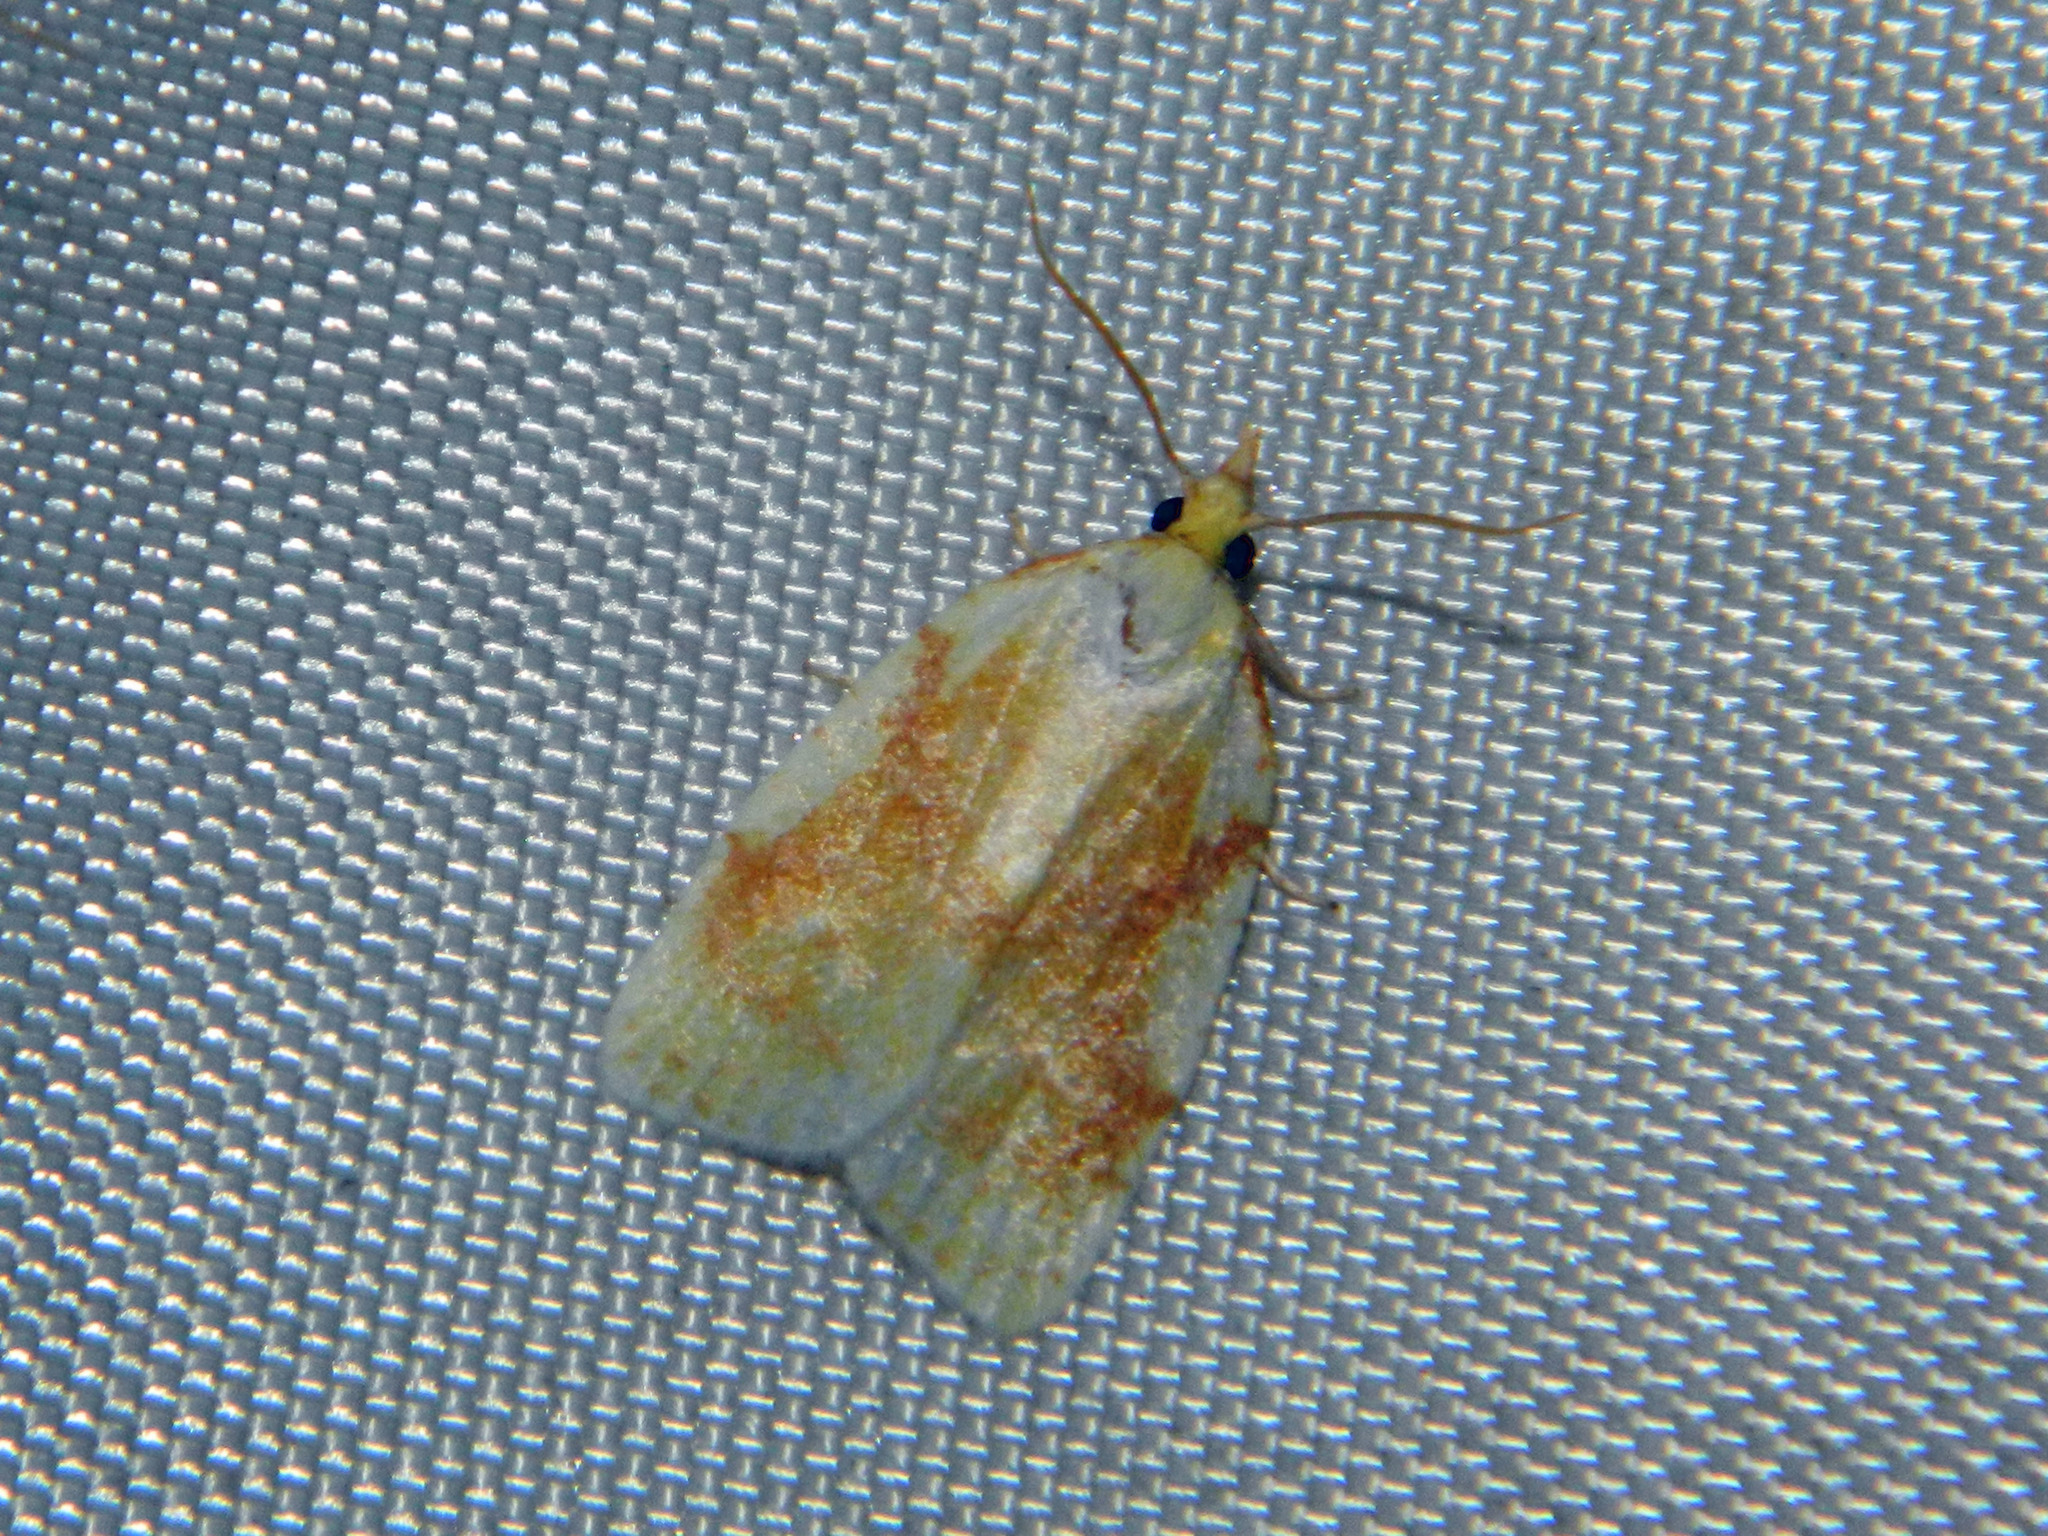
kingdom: Animalia
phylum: Arthropoda
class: Insecta
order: Lepidoptera
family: Tortricidae
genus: Cenopis
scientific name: Cenopis pettitana
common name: Maple-basswood leafroller moth
